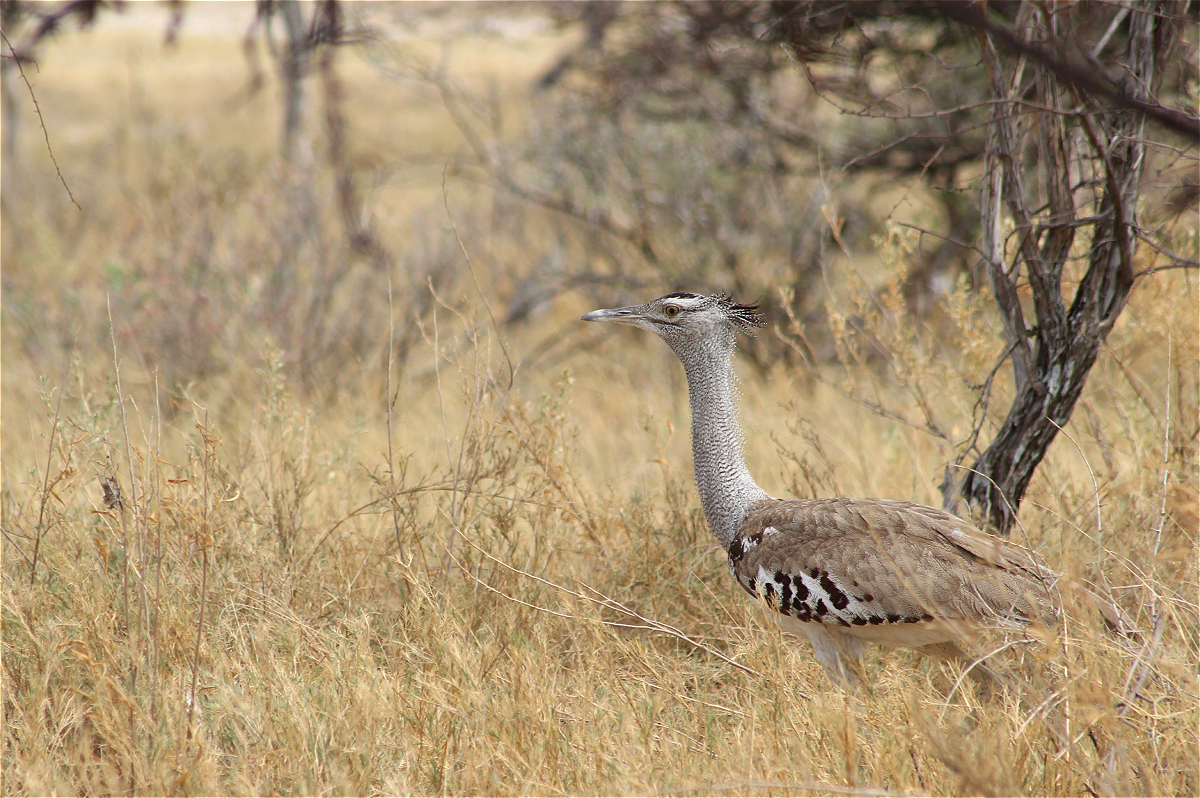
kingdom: Animalia
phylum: Chordata
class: Aves
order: Otidiformes
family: Otididae
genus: Ardeotis
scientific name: Ardeotis kori
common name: Kori bustard
